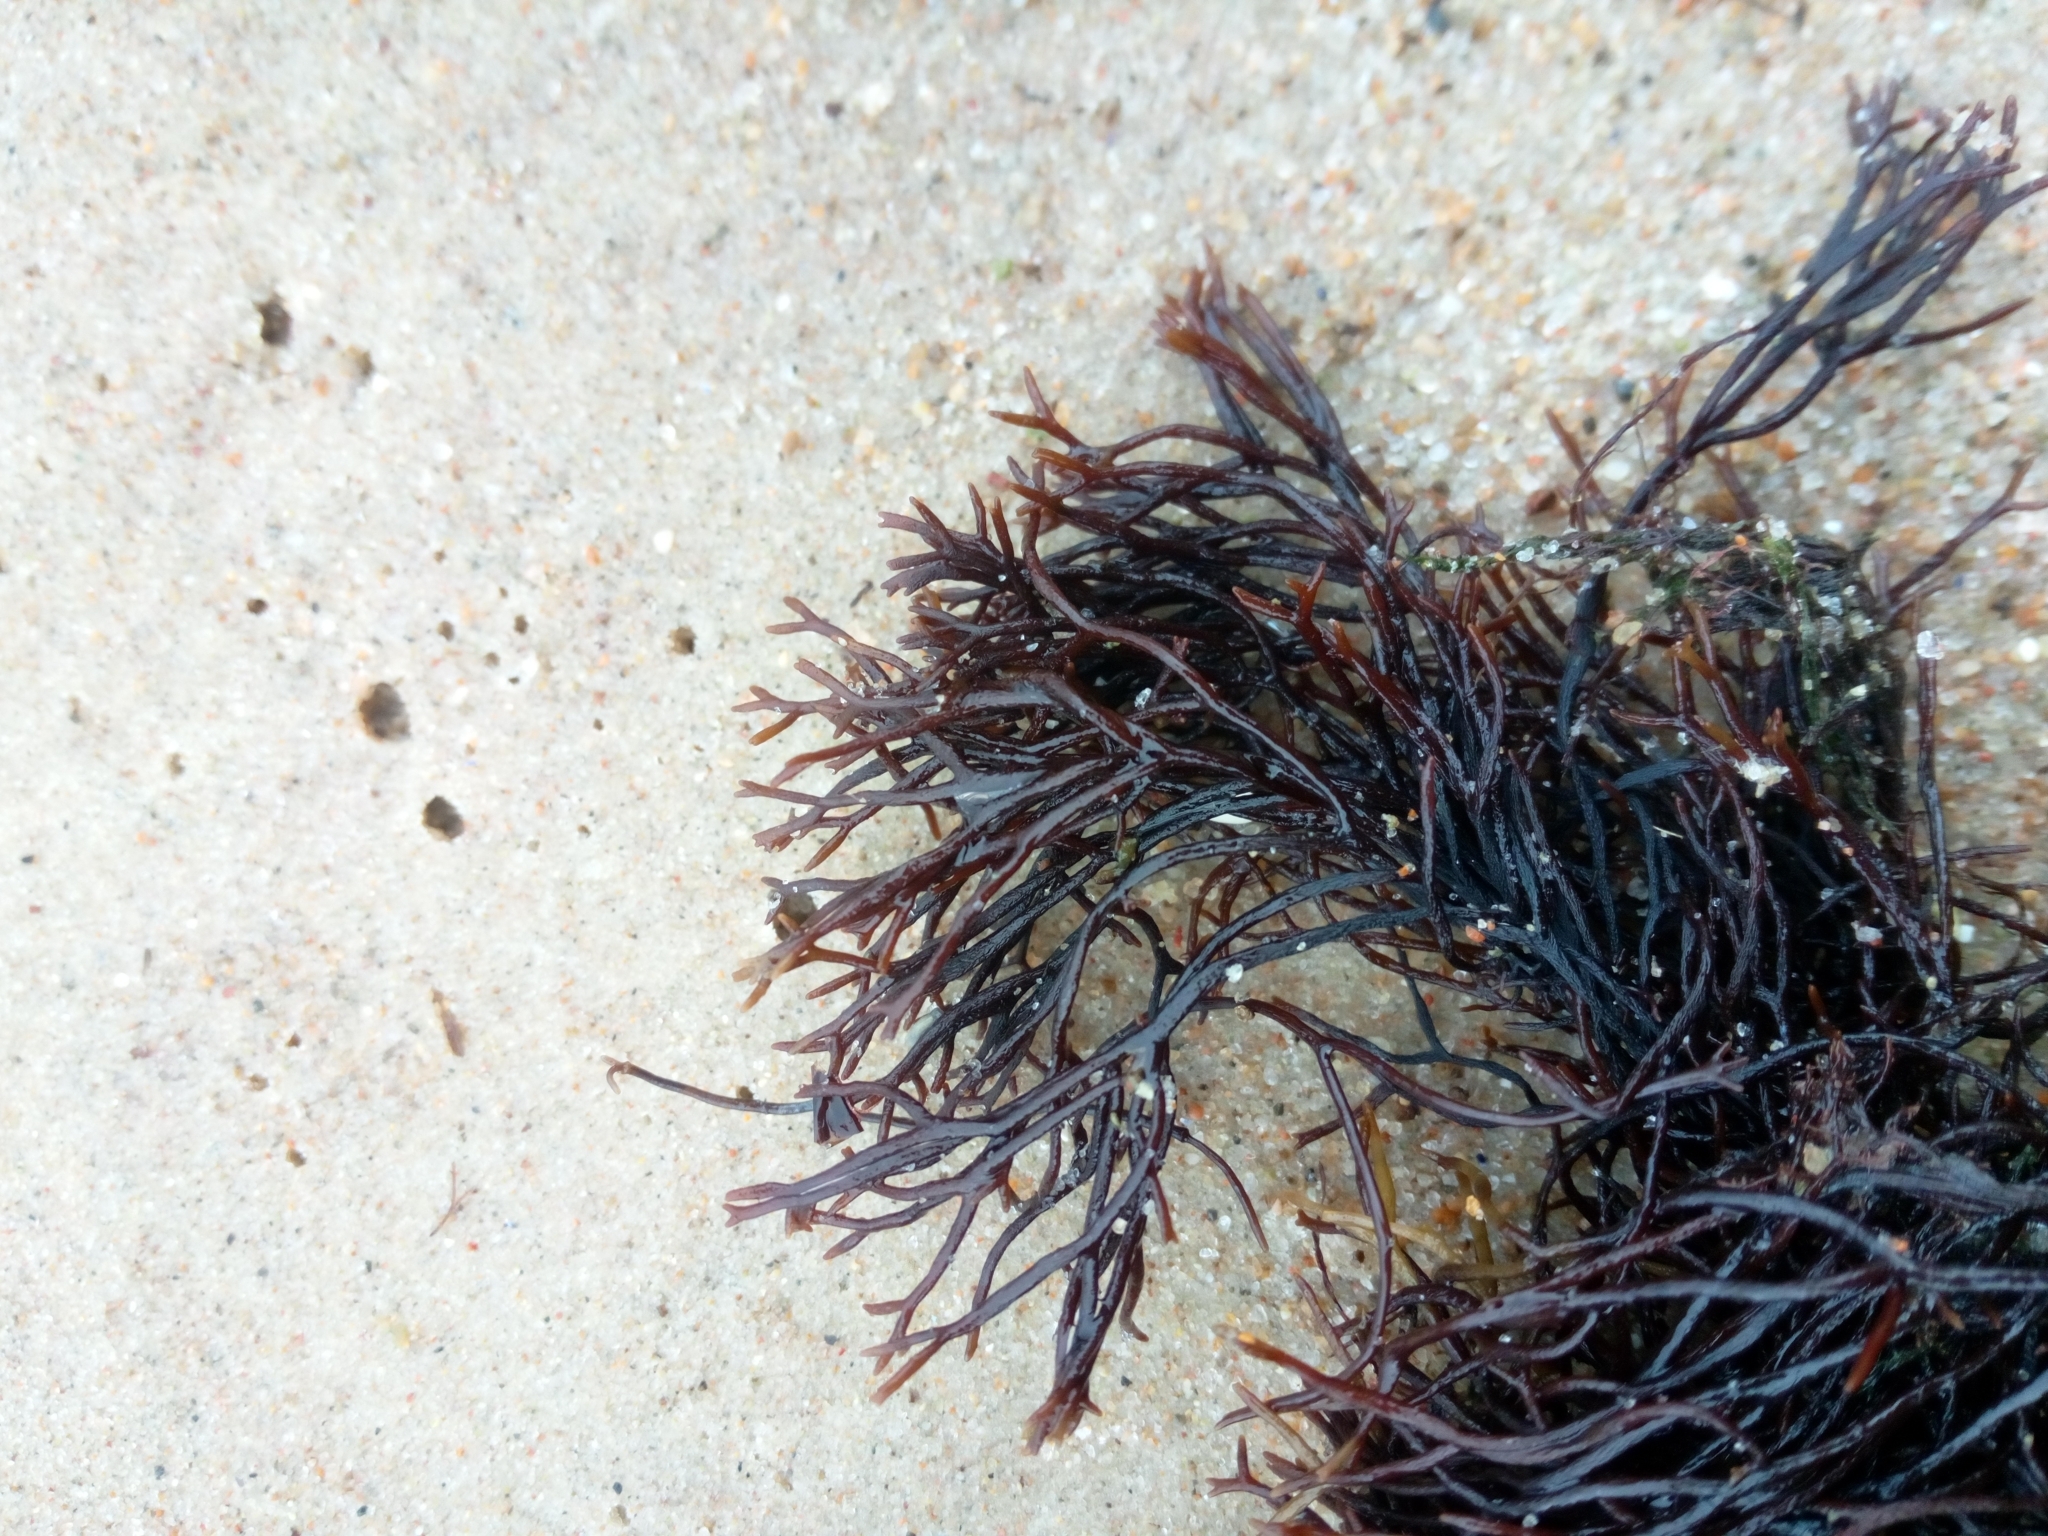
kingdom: Plantae
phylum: Rhodophyta
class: Florideophyceae
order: Gigartinales
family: Furcellariaceae
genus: Furcellaria
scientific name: Furcellaria lumbricalis
